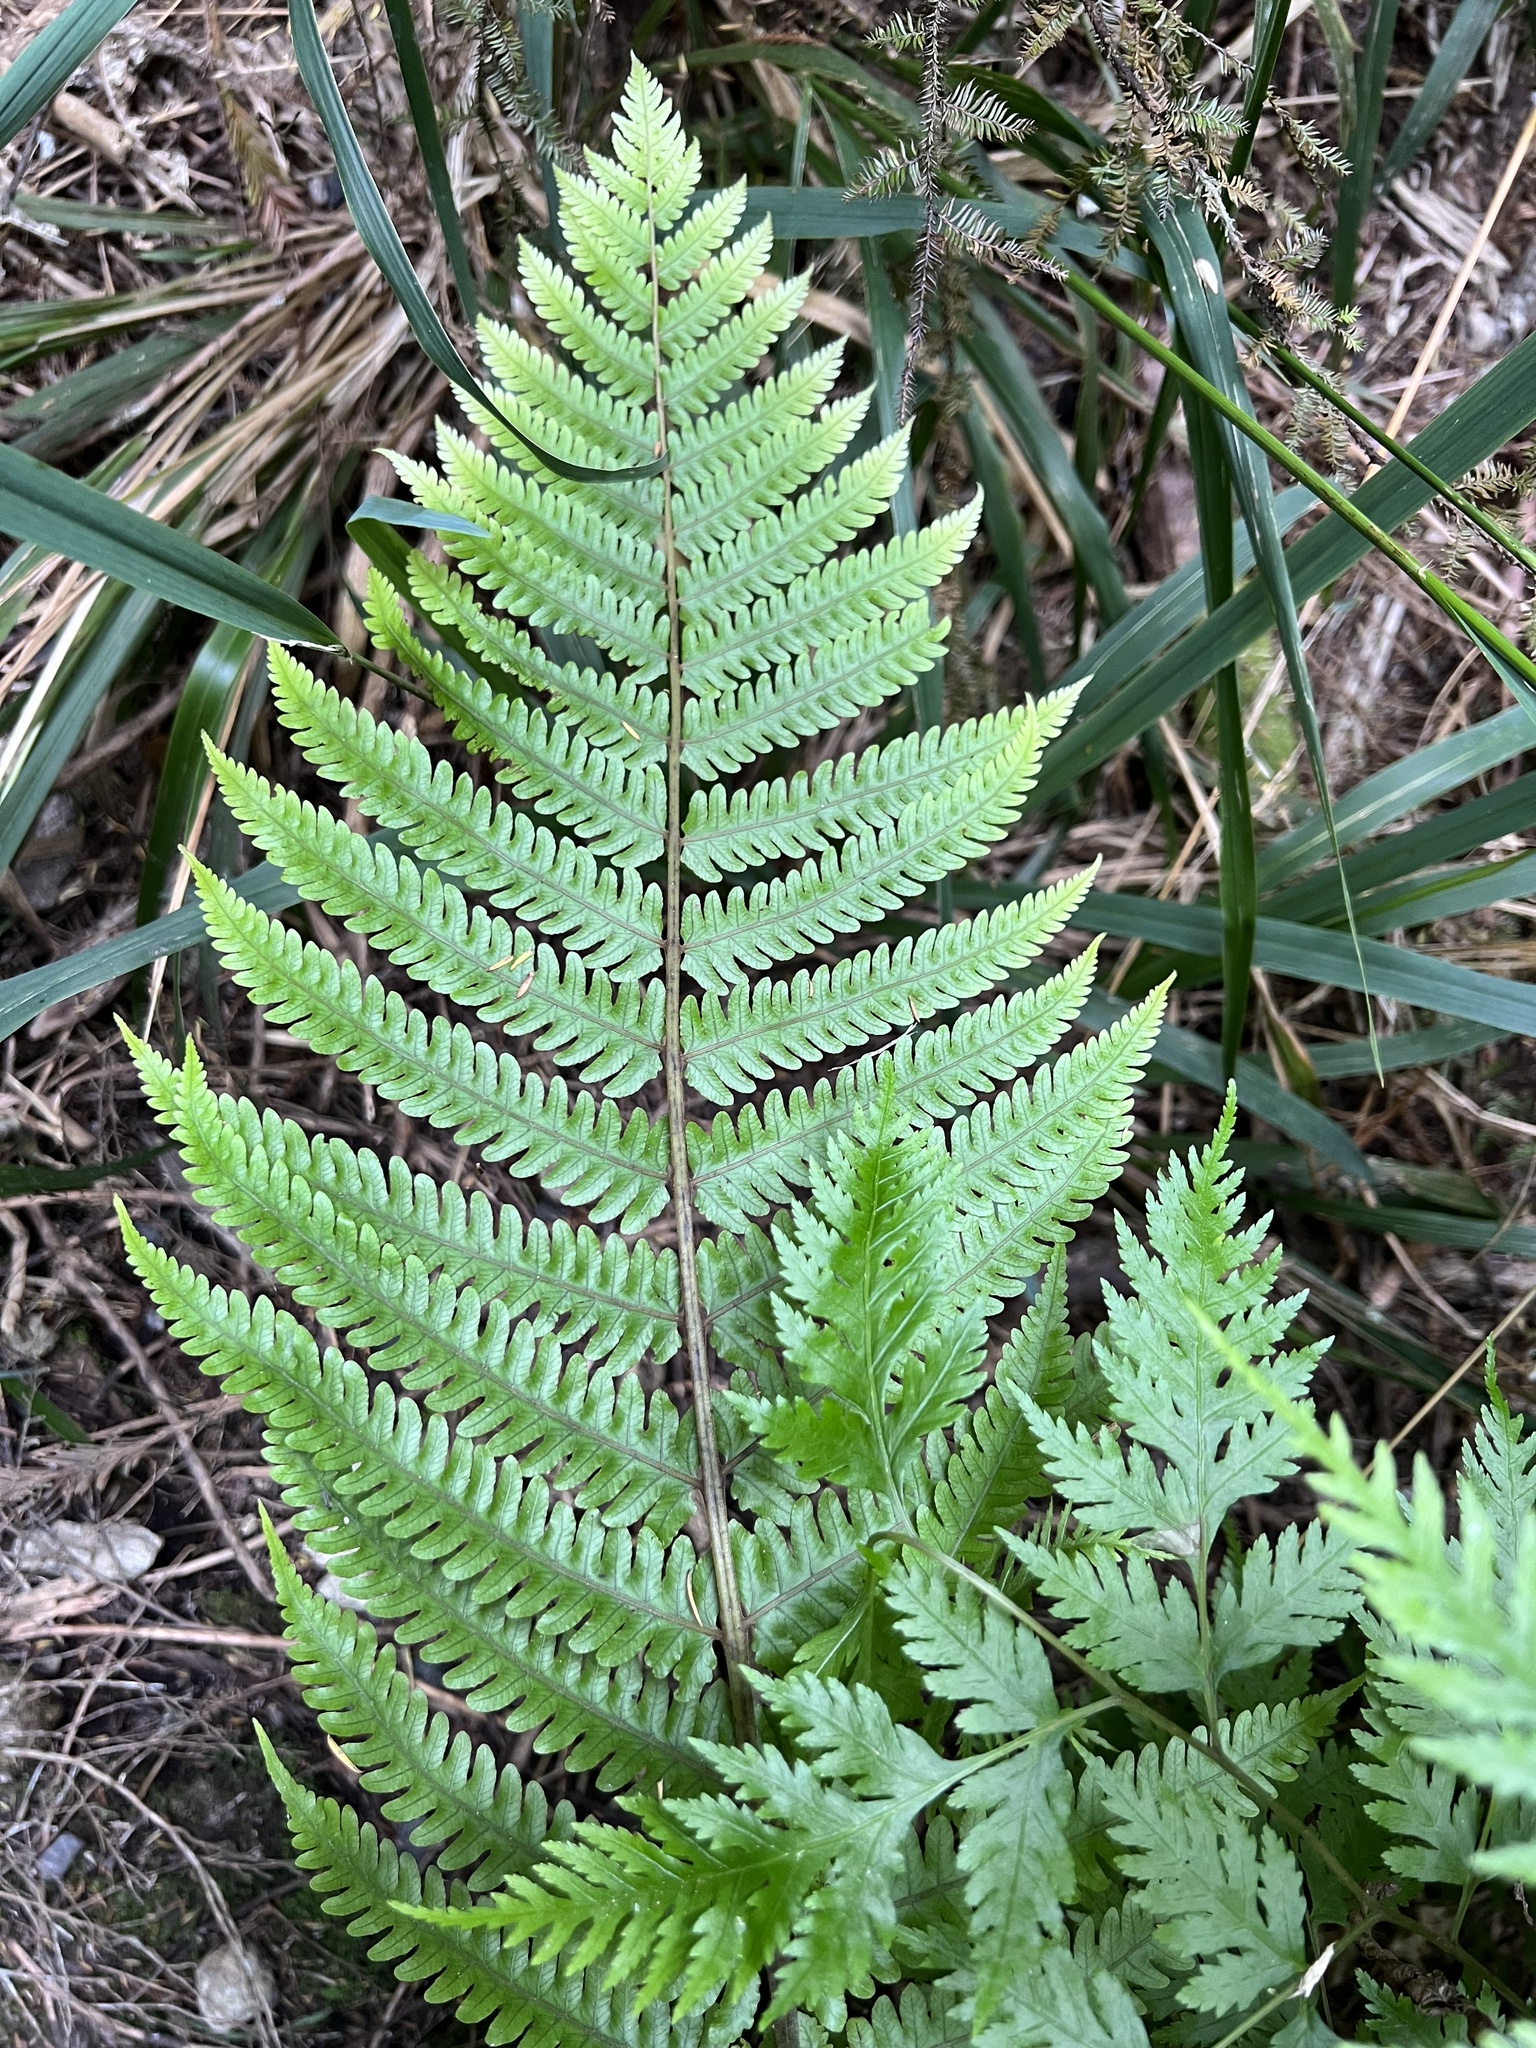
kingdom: Plantae
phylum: Tracheophyta
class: Polypodiopsida
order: Polypodiales
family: Thelypteridaceae
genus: Pakau
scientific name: Pakau pennigera
